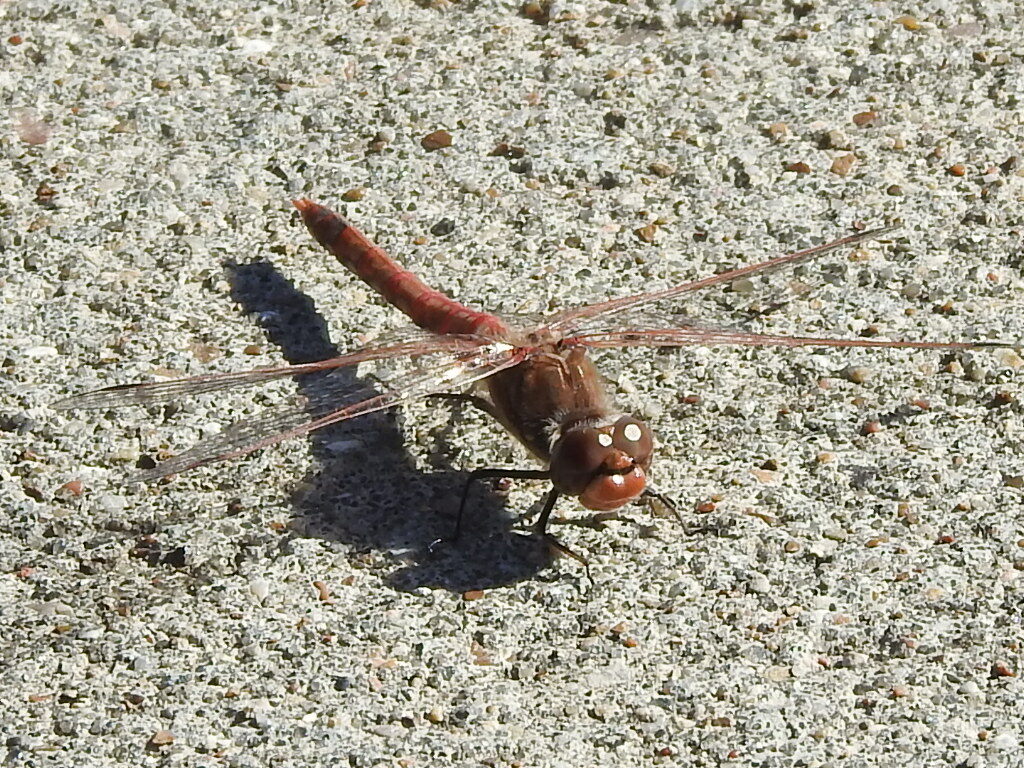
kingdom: Animalia
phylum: Arthropoda
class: Insecta
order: Odonata
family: Libellulidae
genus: Sympetrum
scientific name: Sympetrum corruptum
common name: Variegated meadowhawk
